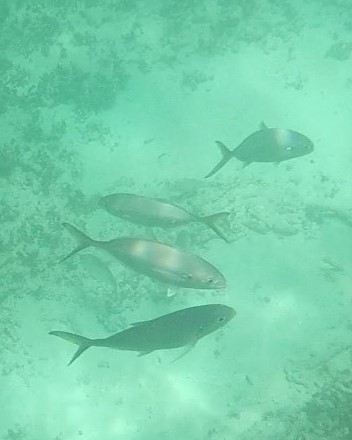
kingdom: Animalia
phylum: Chordata
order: Perciformes
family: Carangidae
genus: Caranx
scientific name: Caranx crysos
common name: Blue runner
